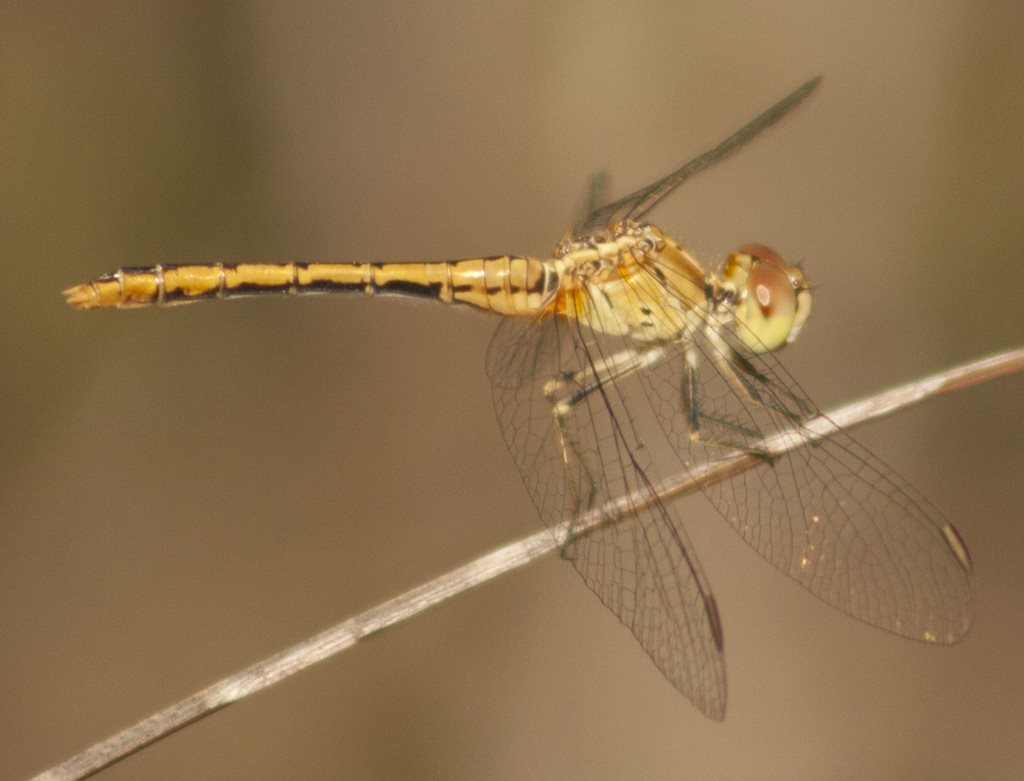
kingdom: Animalia
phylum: Arthropoda
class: Insecta
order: Odonata
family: Libellulidae
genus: Diplacodes
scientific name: Diplacodes bipunctata
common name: Red percher dragonfly
